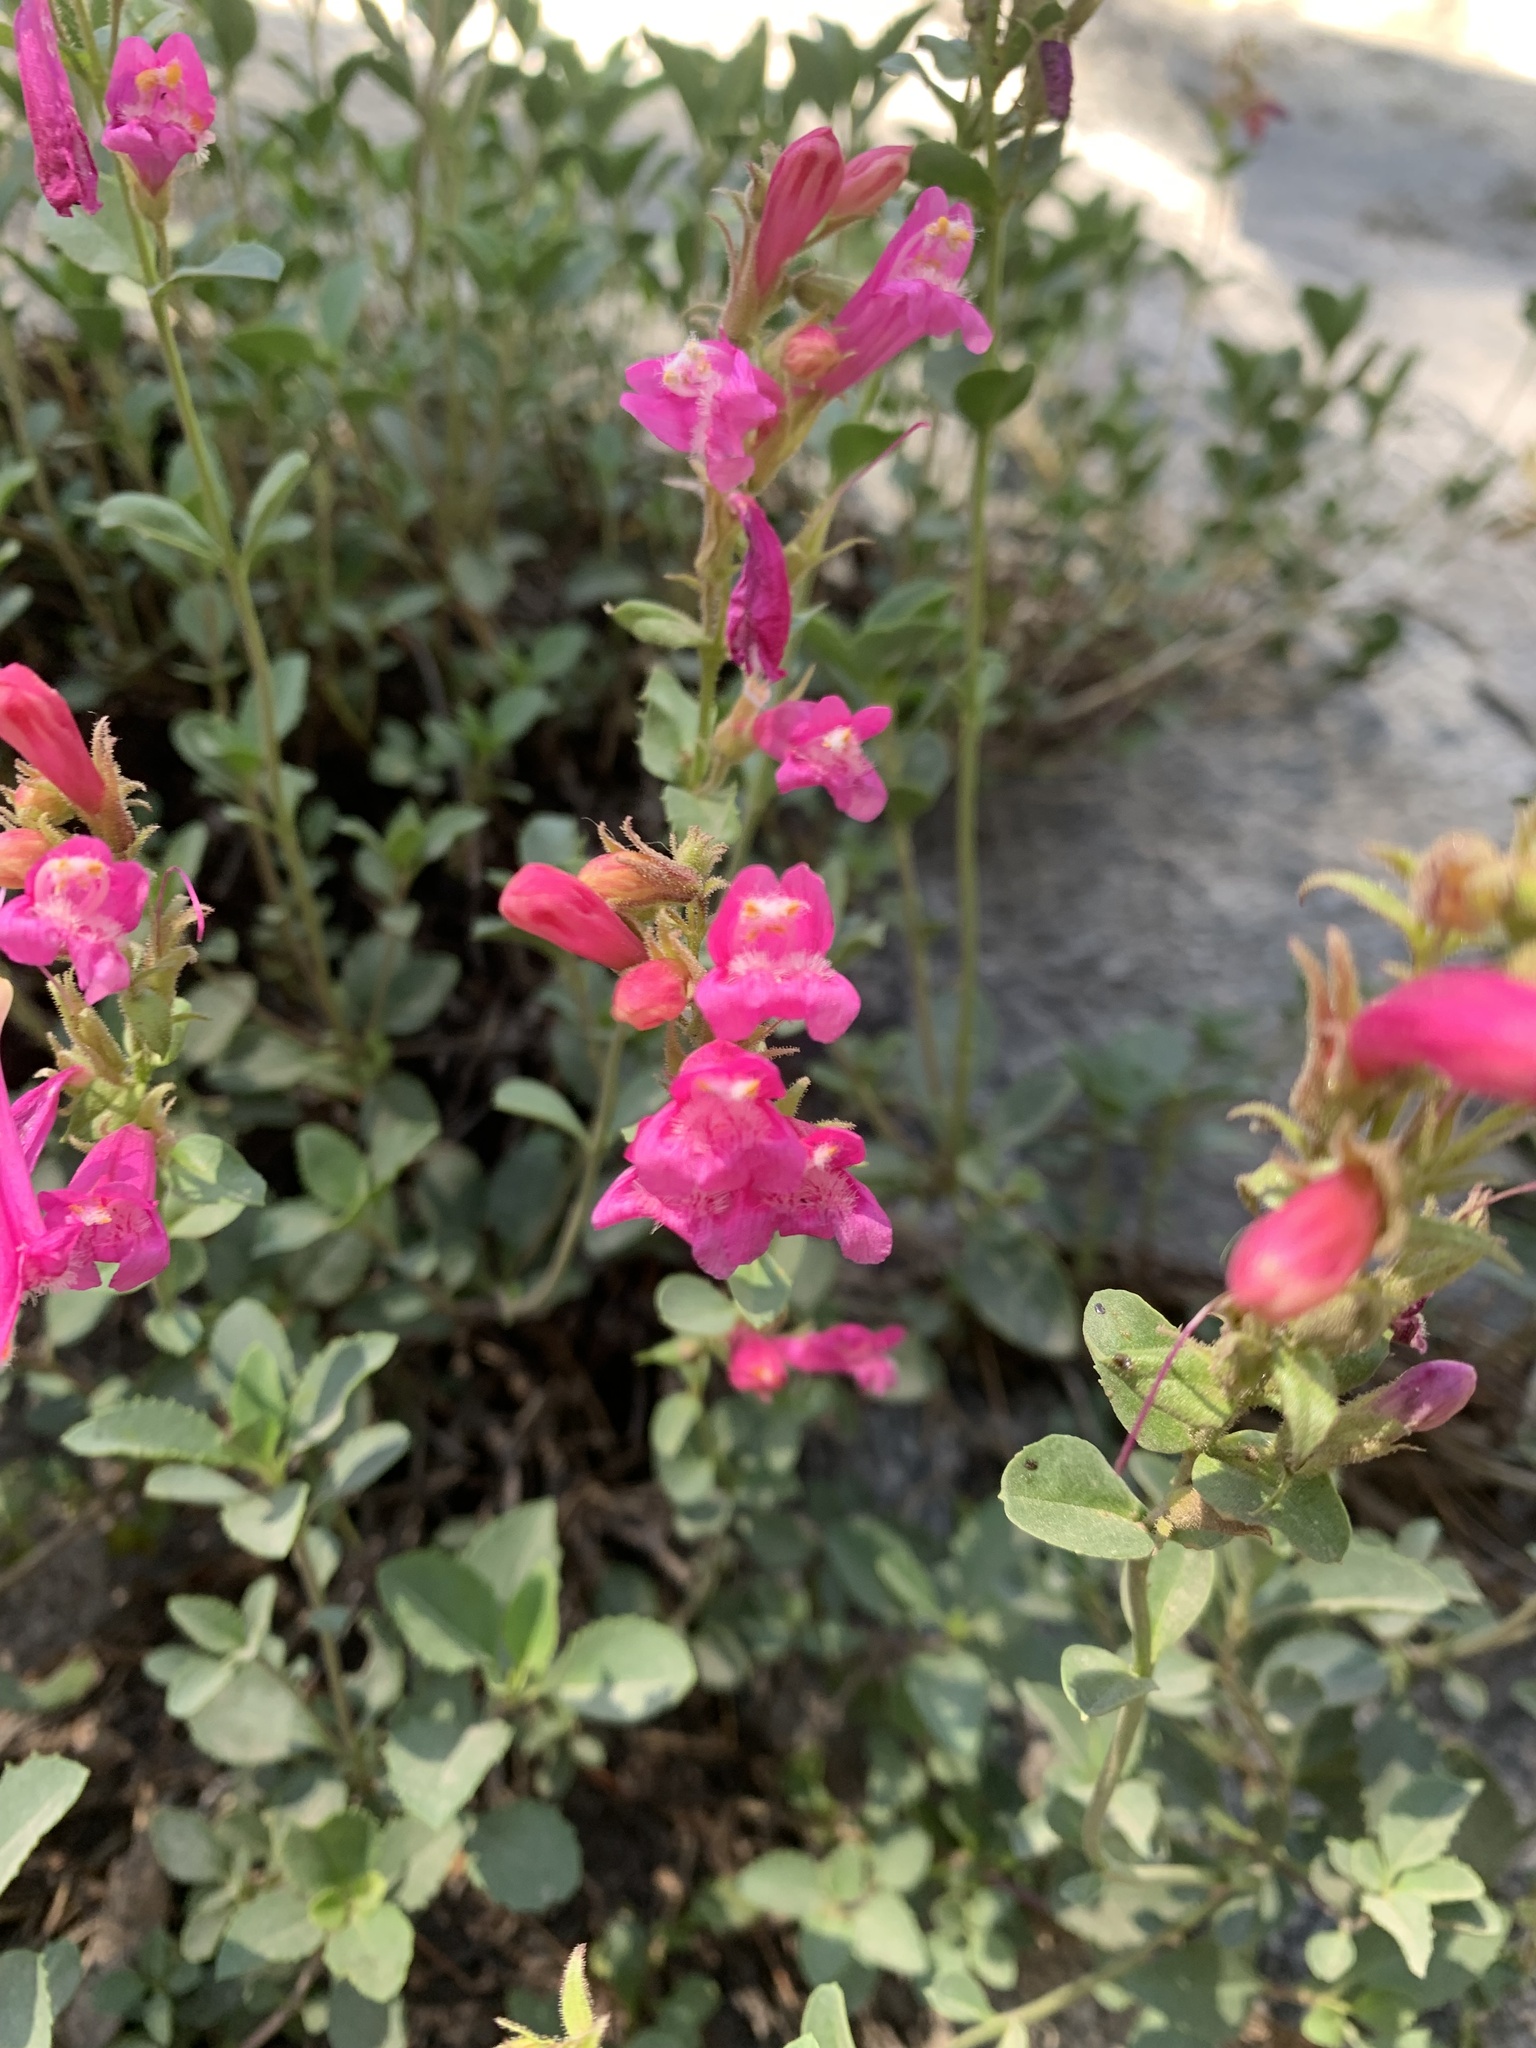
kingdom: Plantae
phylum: Tracheophyta
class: Magnoliopsida
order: Lamiales
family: Plantaginaceae
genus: Penstemon
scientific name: Penstemon newberryi
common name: Mountain-pride
